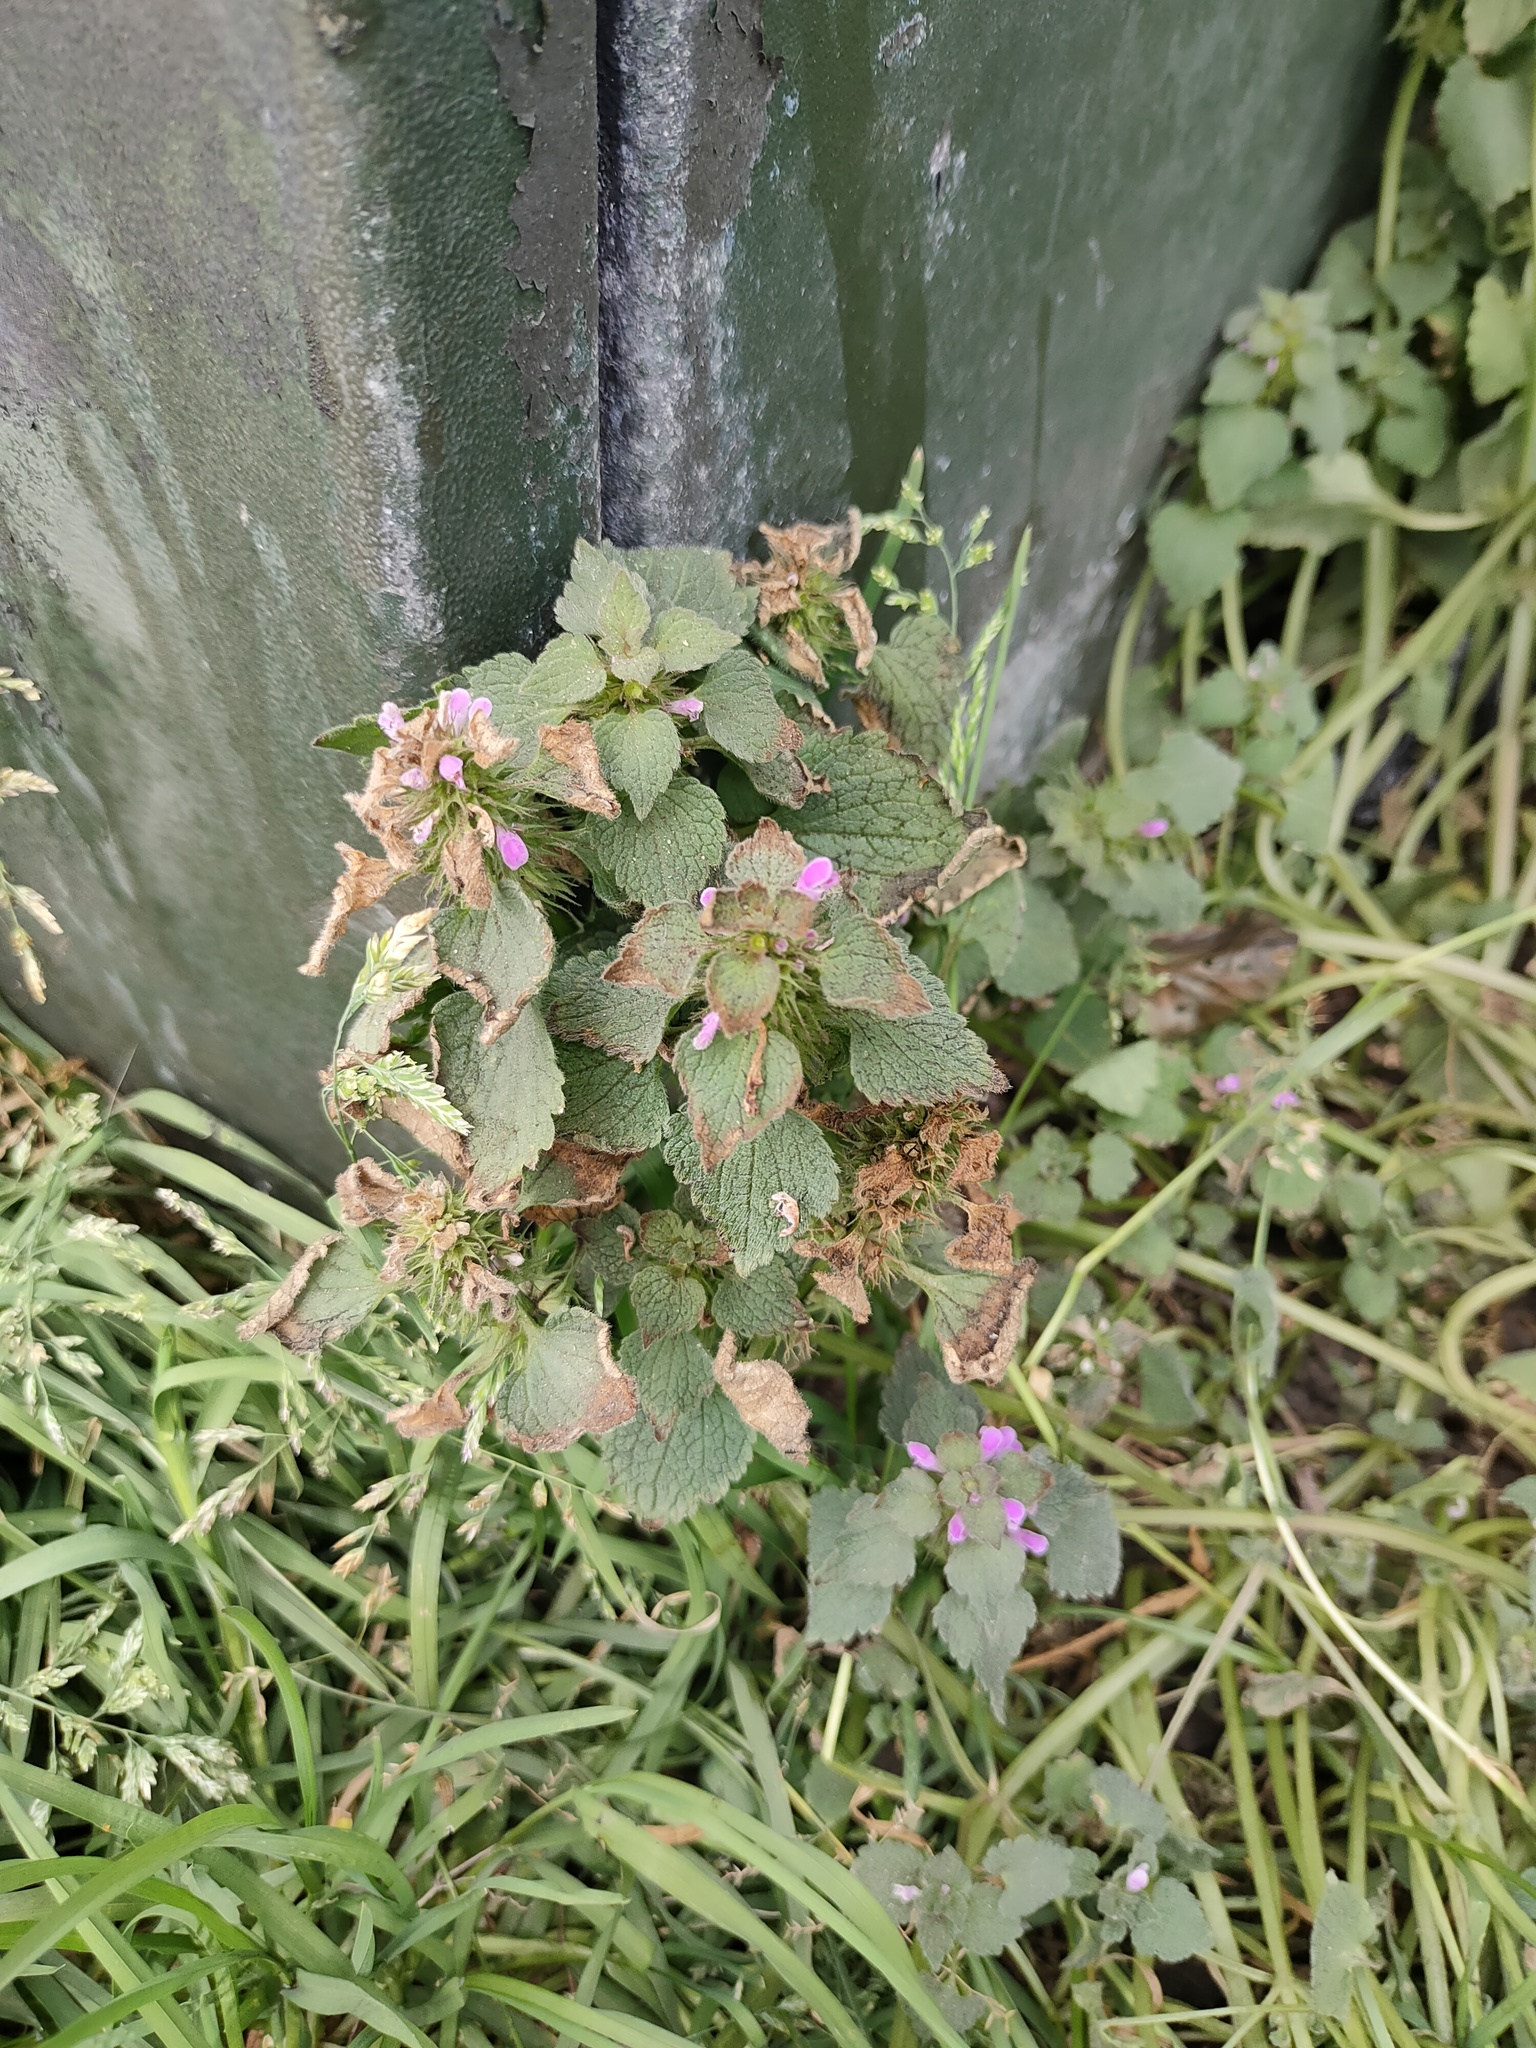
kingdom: Plantae
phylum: Tracheophyta
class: Magnoliopsida
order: Lamiales
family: Lamiaceae
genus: Lamium
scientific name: Lamium purpureum
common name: Red dead-nettle
